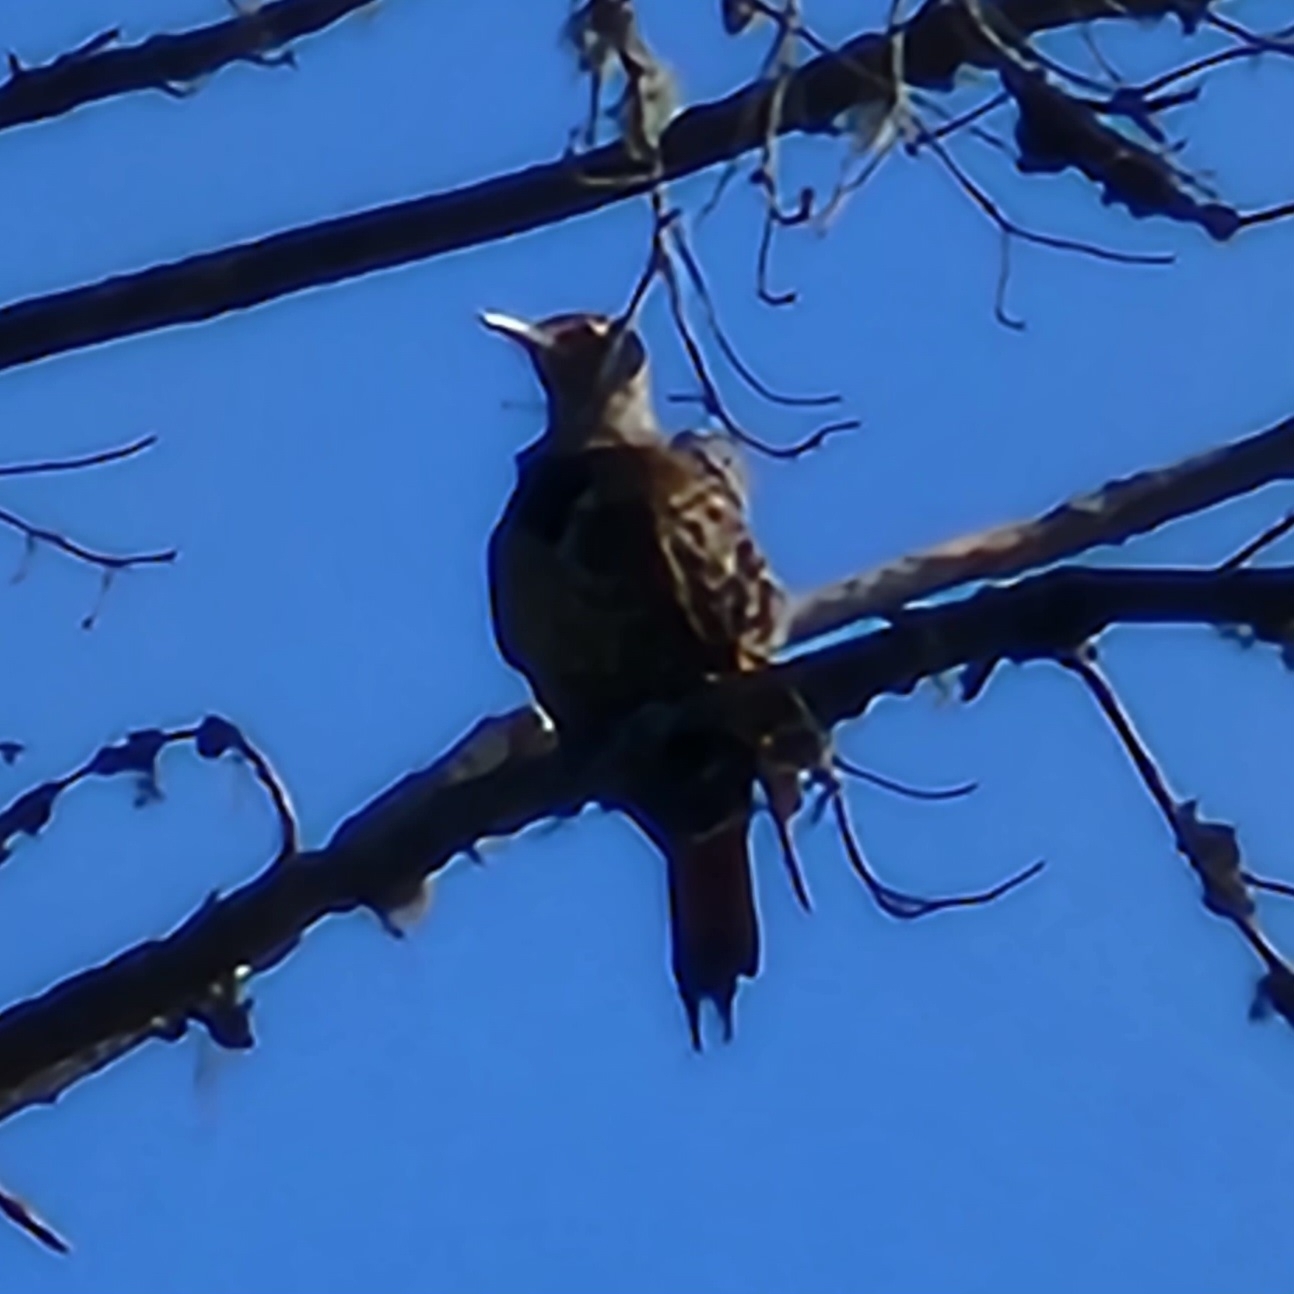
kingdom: Animalia
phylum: Chordata
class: Aves
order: Piciformes
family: Picidae
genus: Colaptes
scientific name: Colaptes auratus
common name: Northern flicker
